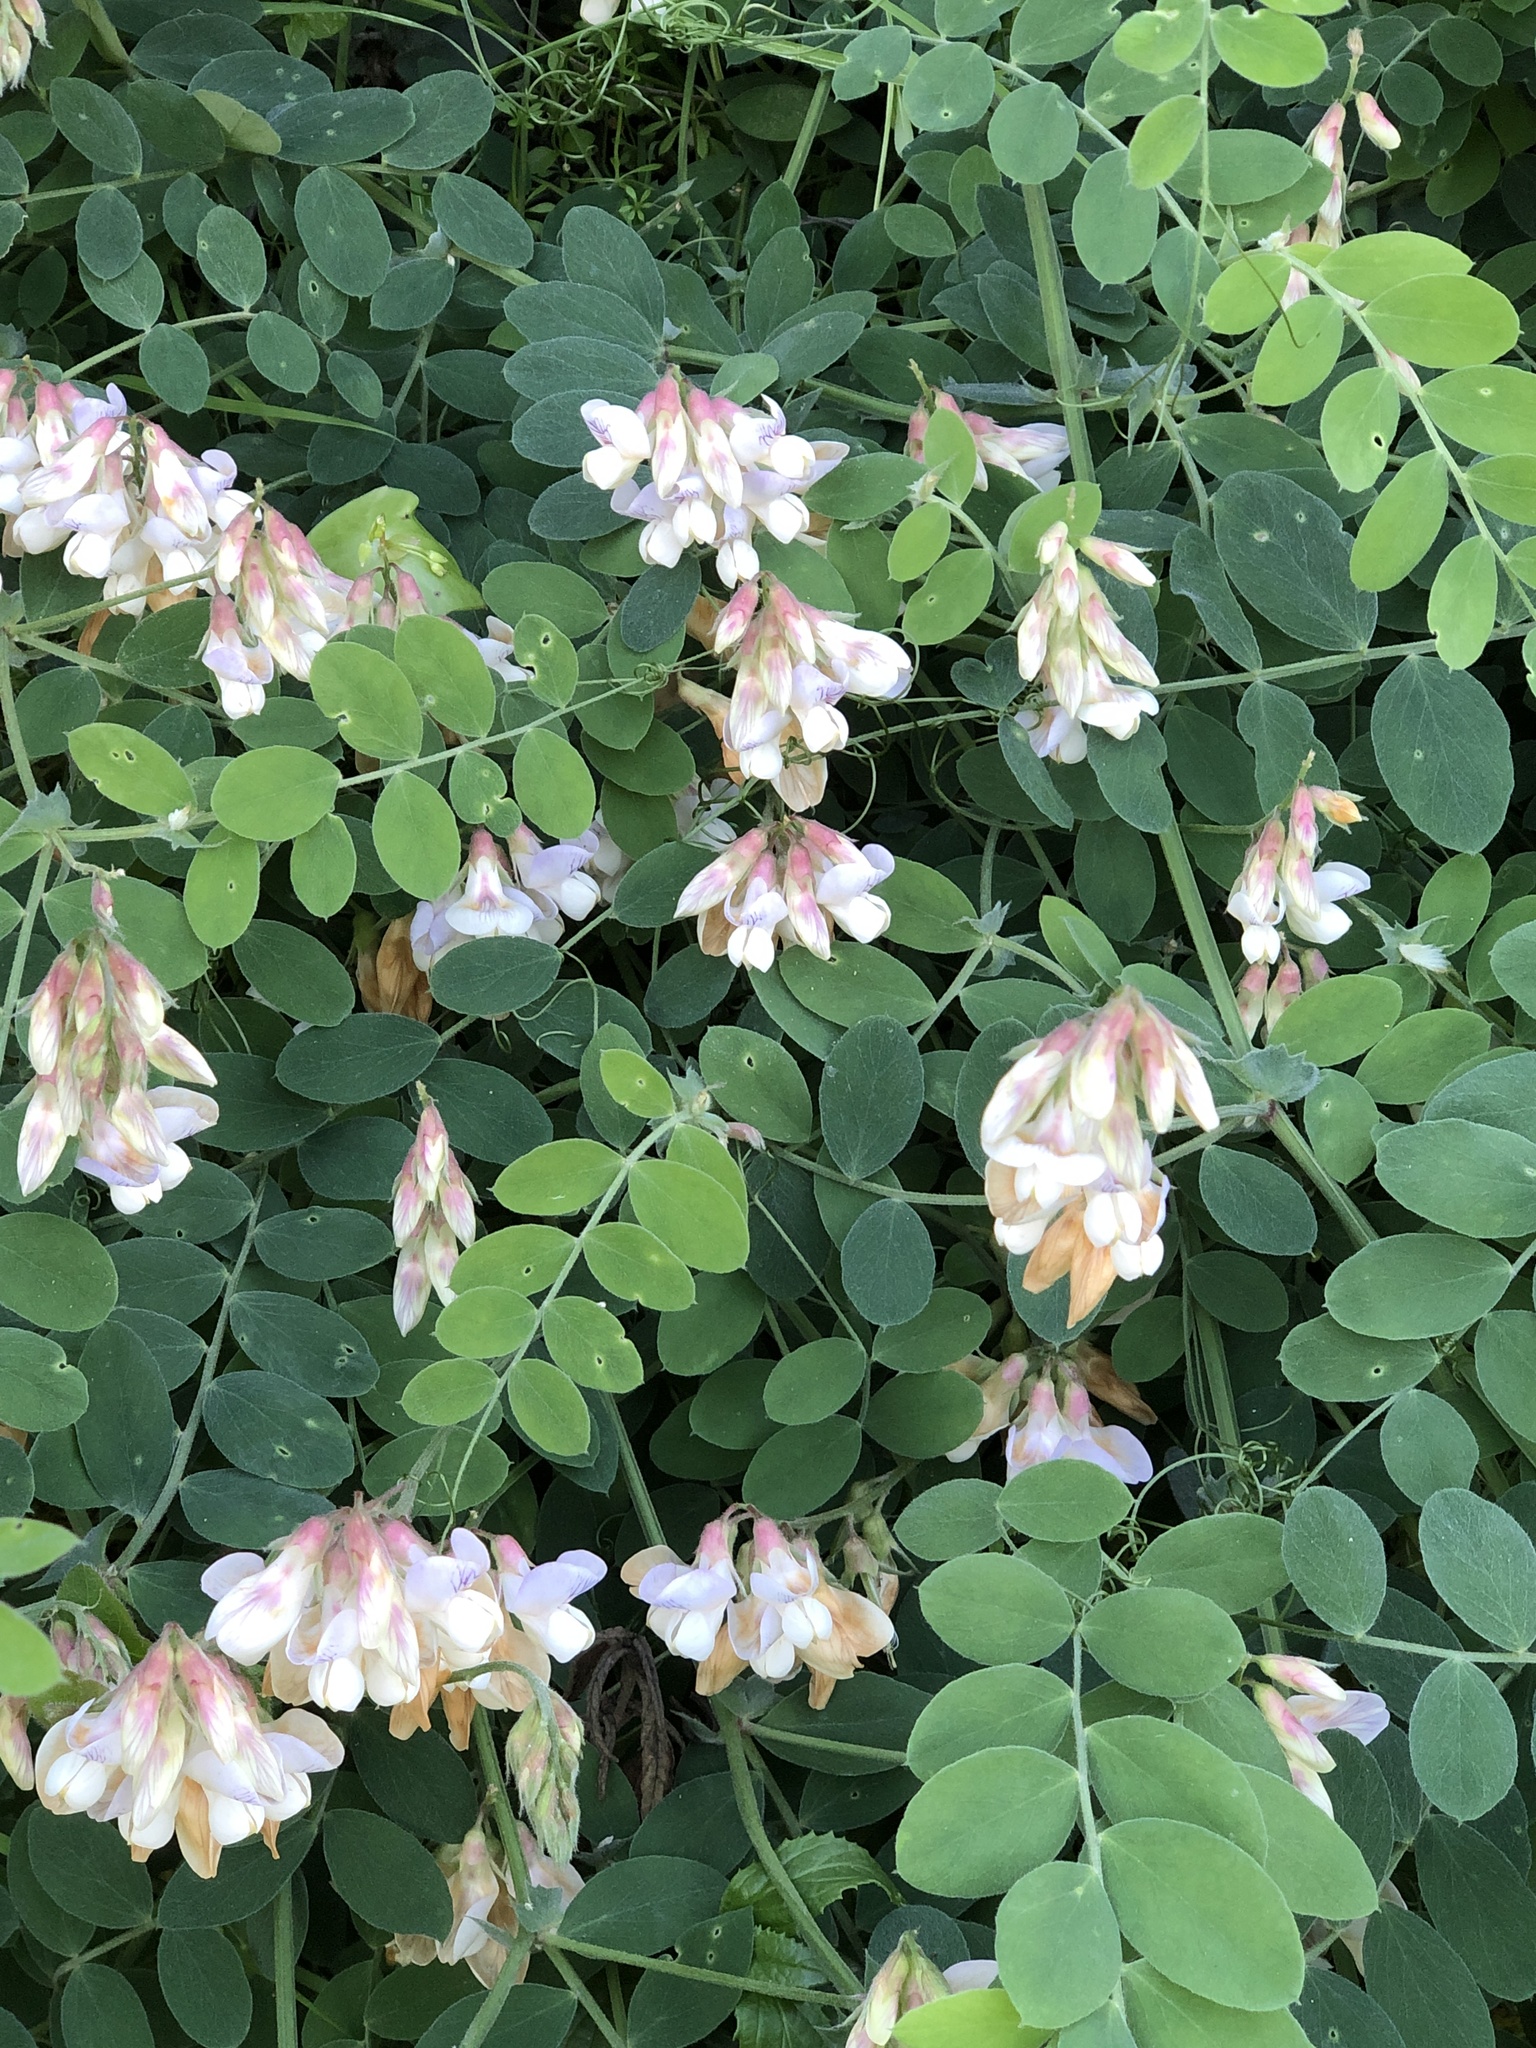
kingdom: Plantae
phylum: Tracheophyta
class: Magnoliopsida
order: Fabales
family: Fabaceae
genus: Lathyrus
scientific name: Lathyrus vestitus
